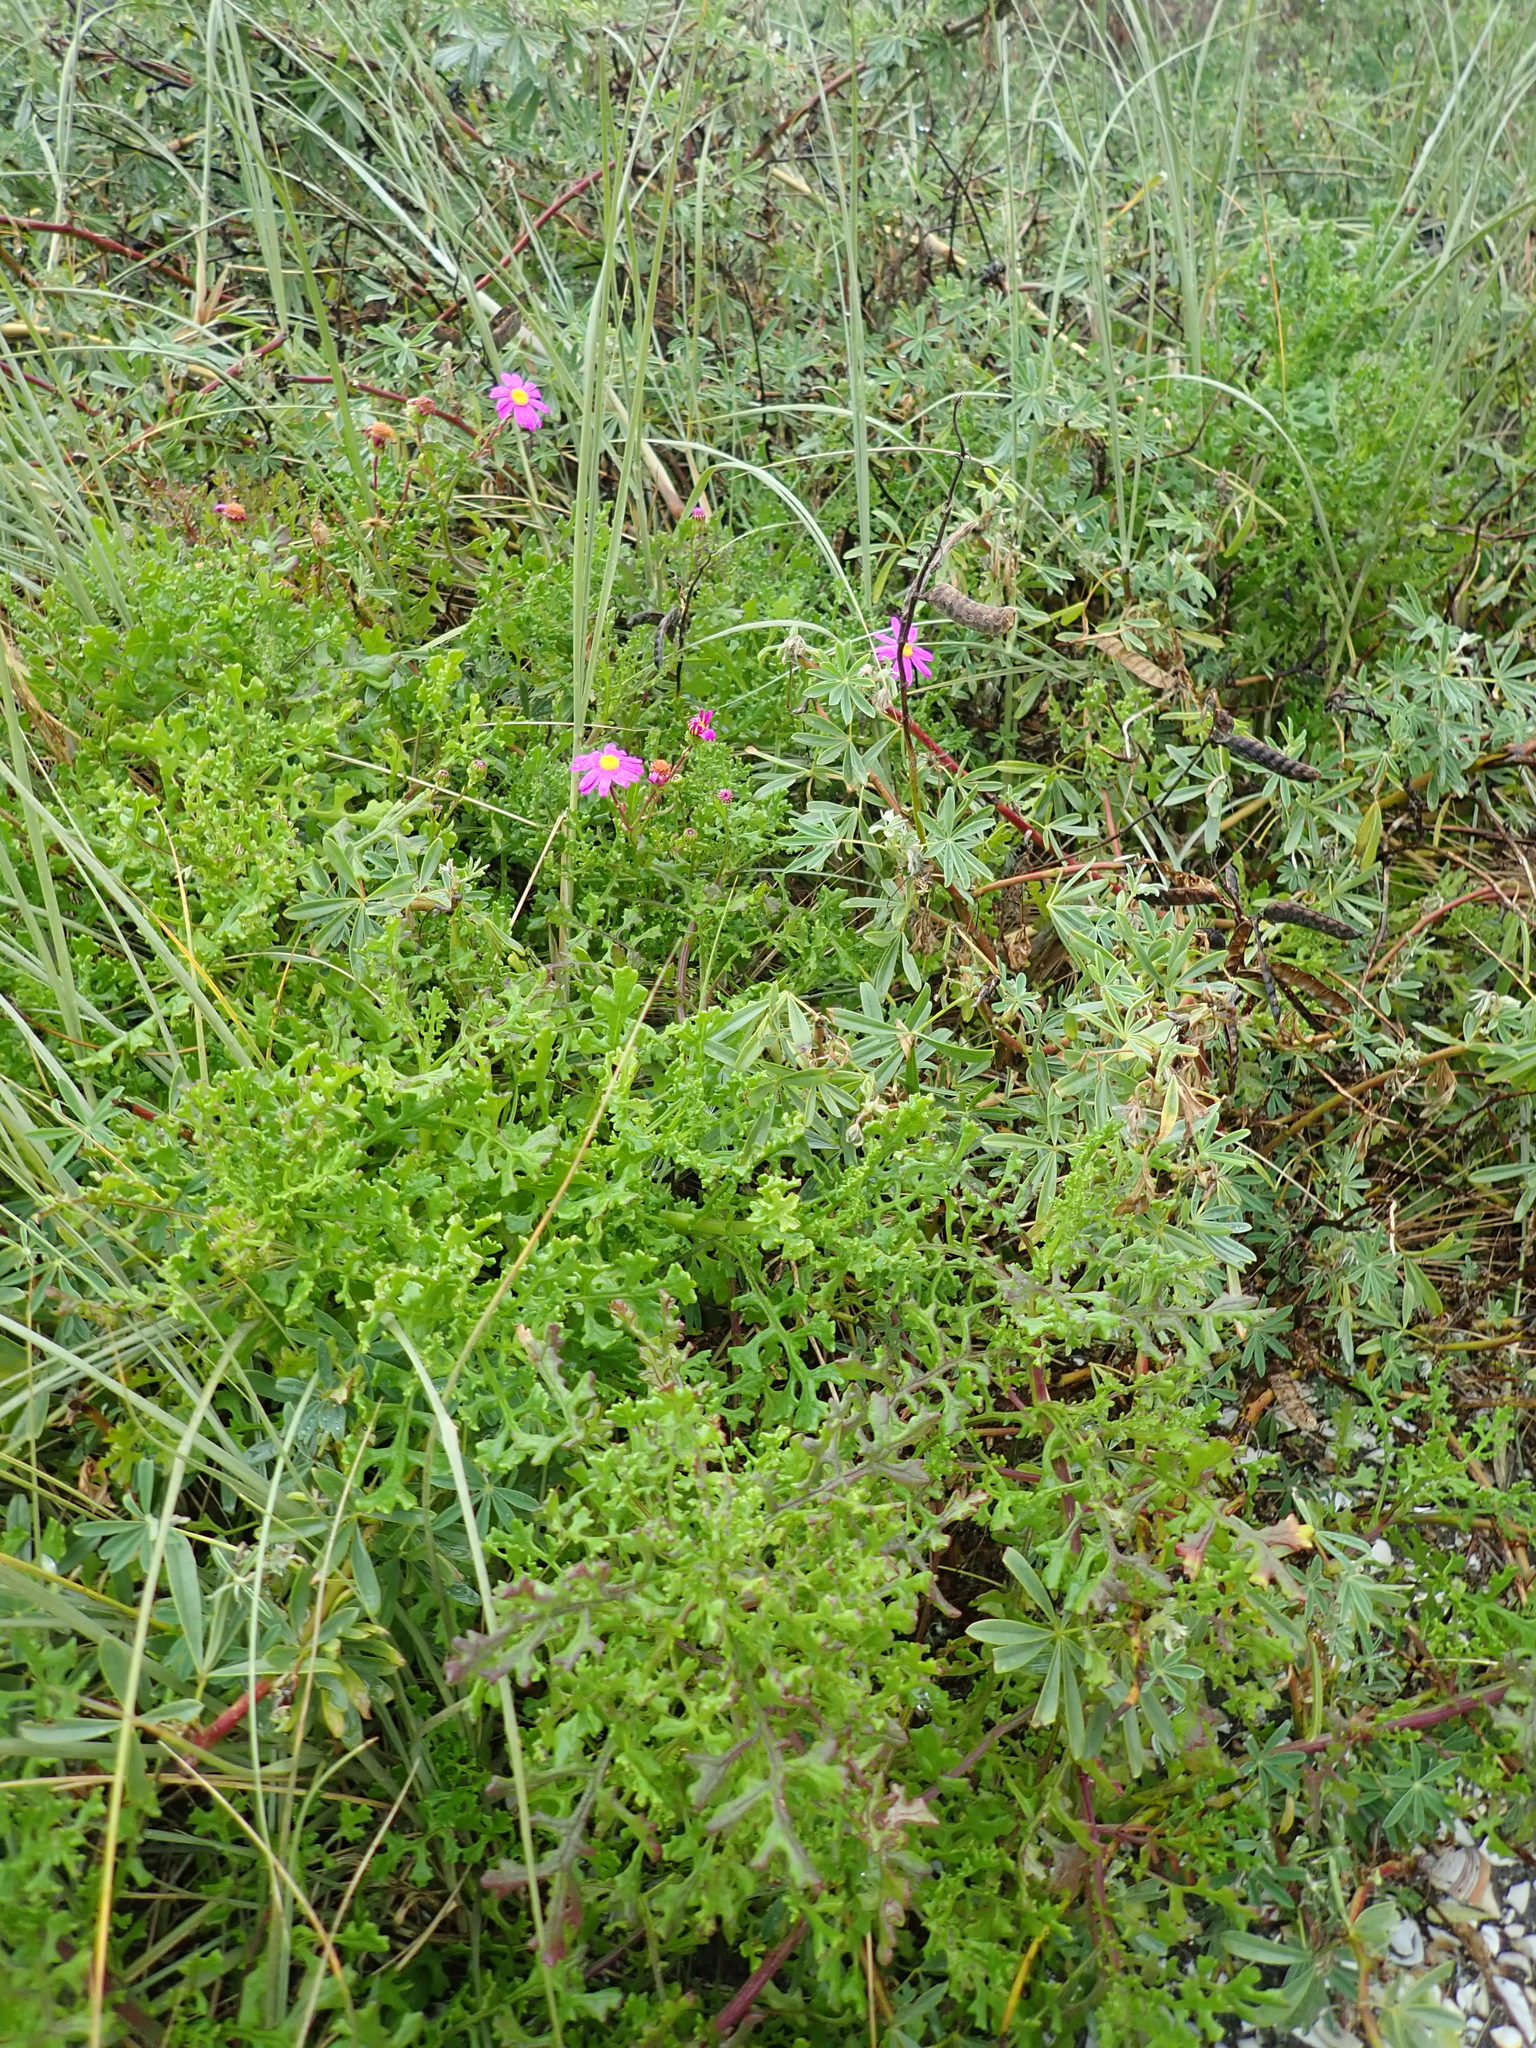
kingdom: Plantae
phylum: Tracheophyta
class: Magnoliopsida
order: Asterales
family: Asteraceae
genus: Senecio
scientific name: Senecio elegans
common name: Purple groundsel
